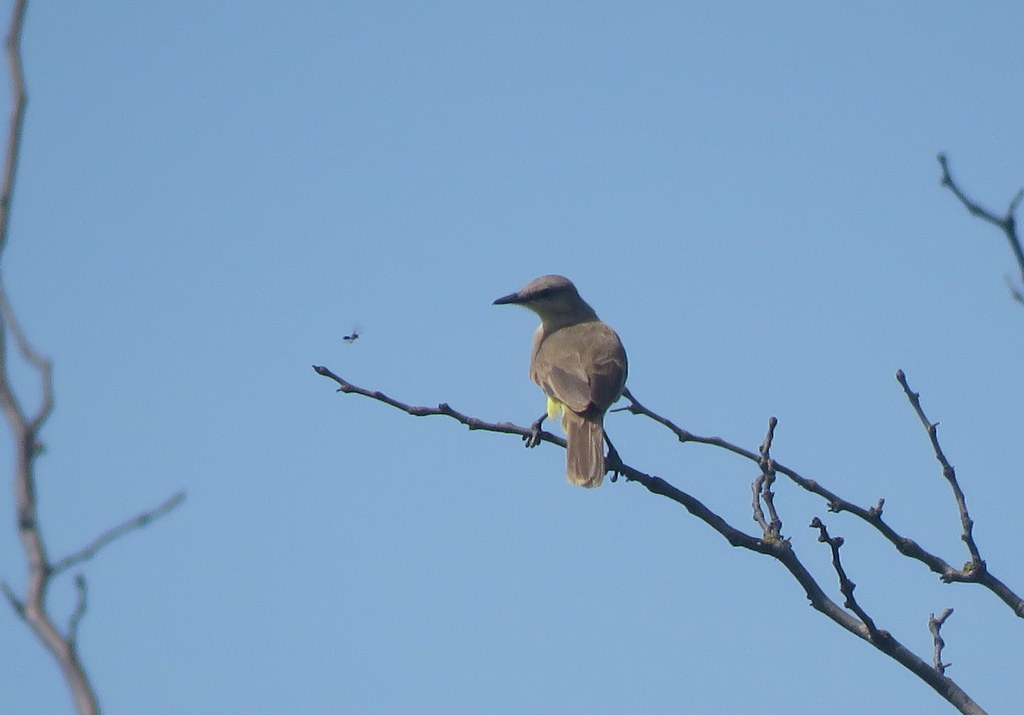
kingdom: Animalia
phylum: Chordata
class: Aves
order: Passeriformes
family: Tyrannidae
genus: Machetornis
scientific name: Machetornis rixosa
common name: Cattle tyrant
